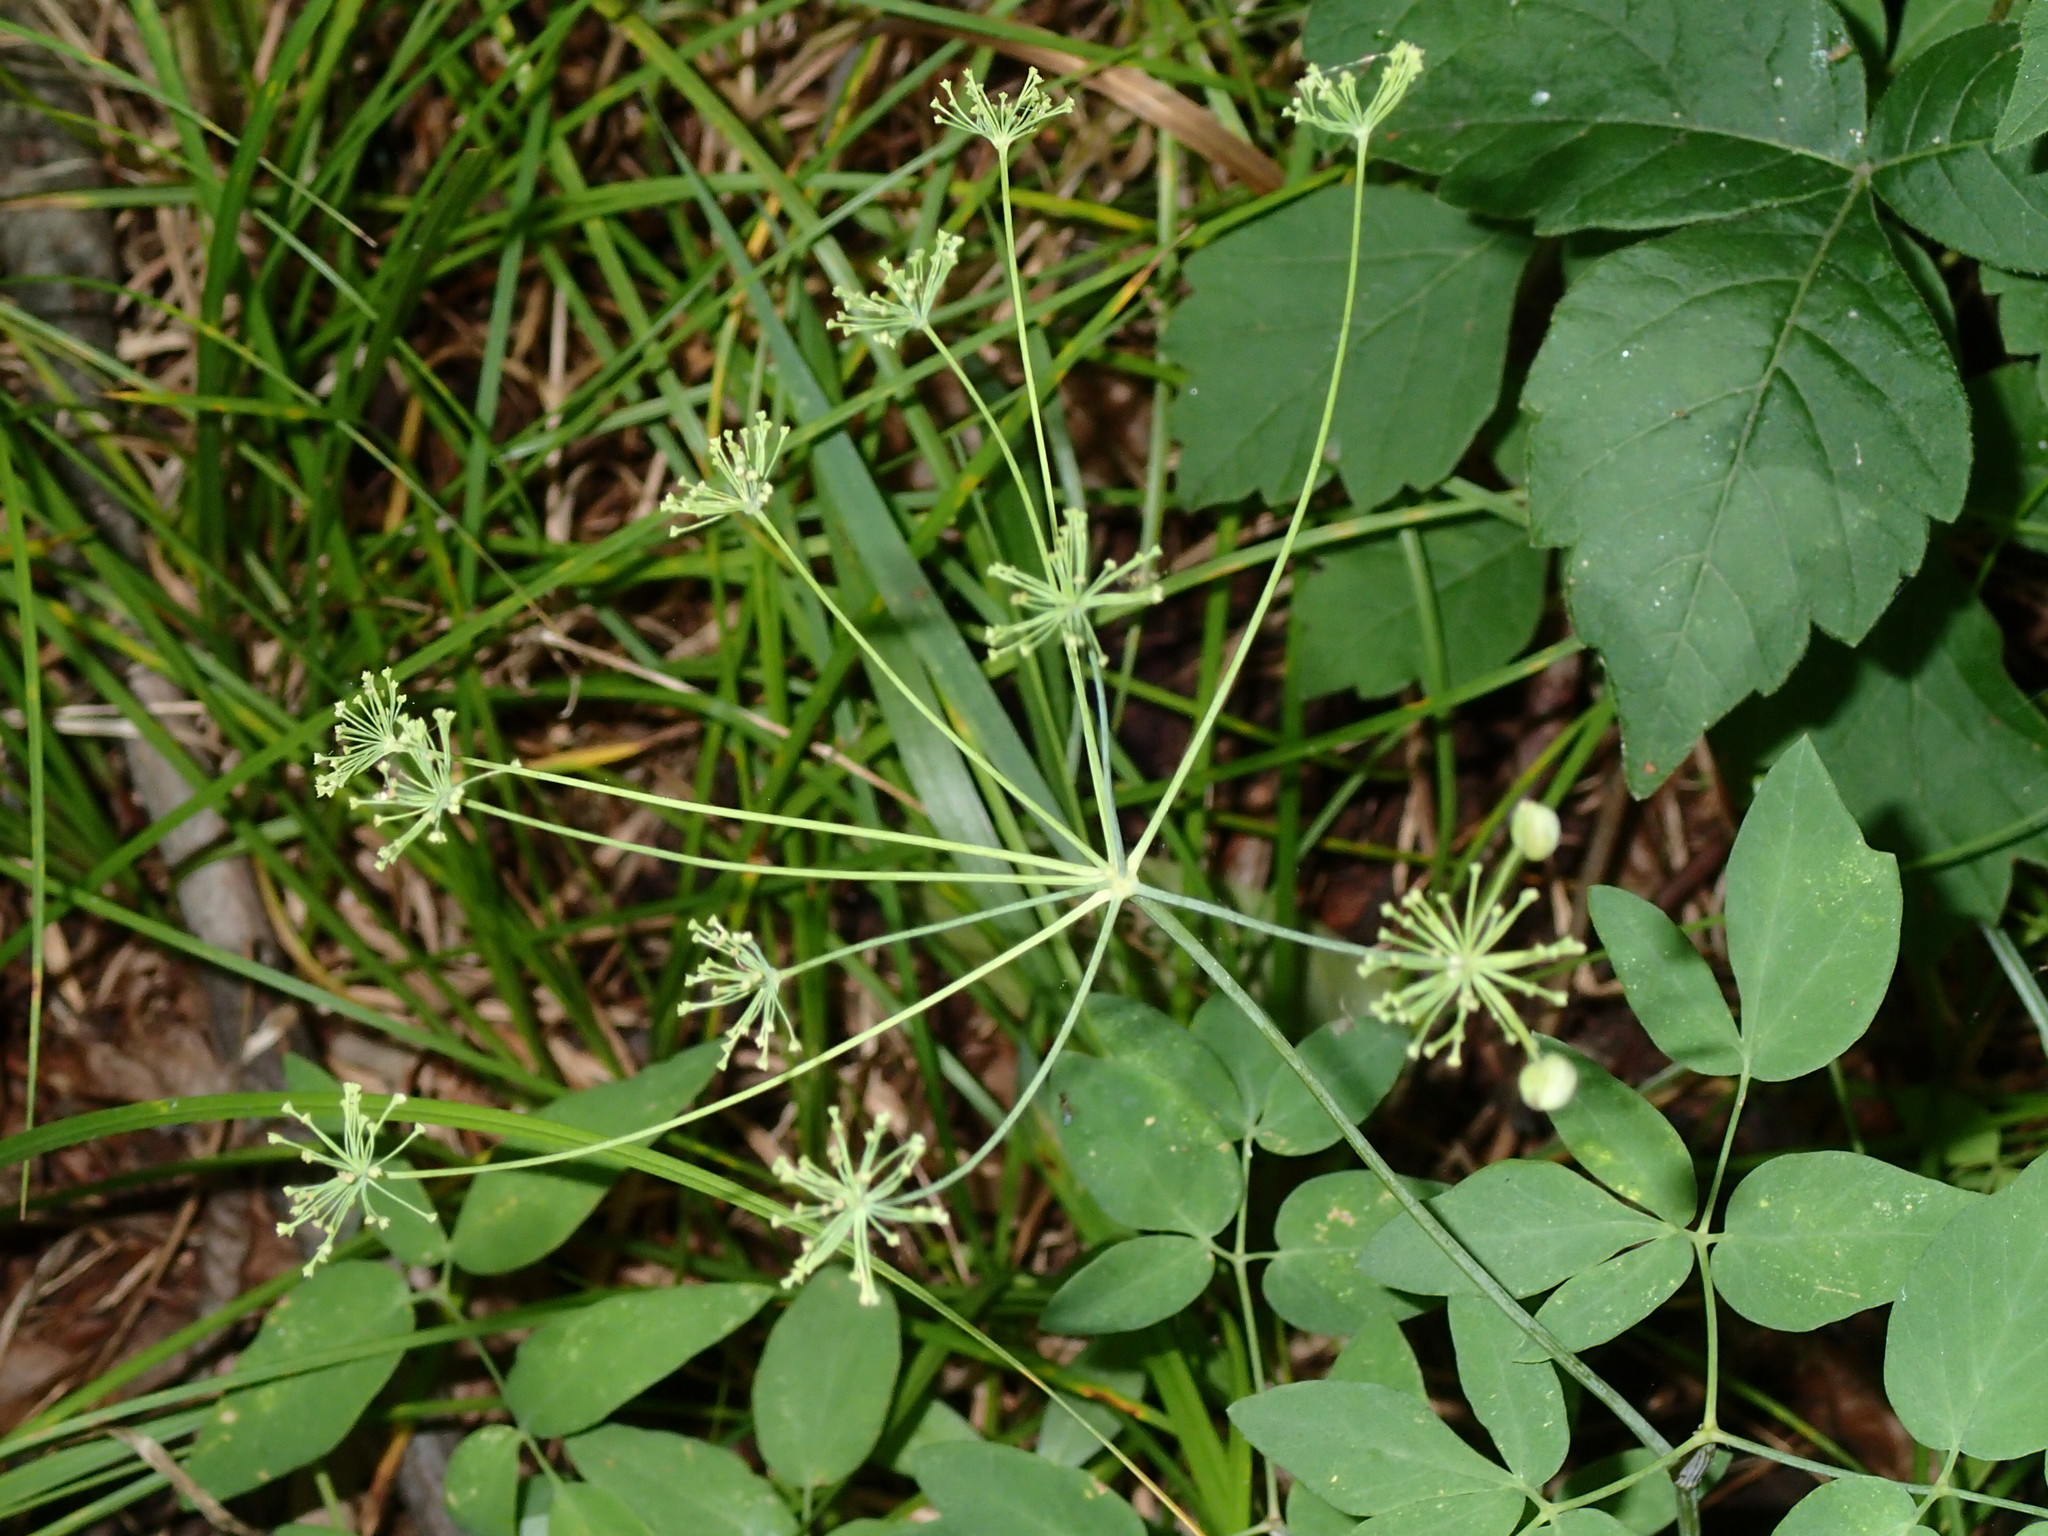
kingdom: Plantae
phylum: Tracheophyta
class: Magnoliopsida
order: Apiales
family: Apiaceae
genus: Taenidia
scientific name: Taenidia integerrima
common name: Golden alexander
